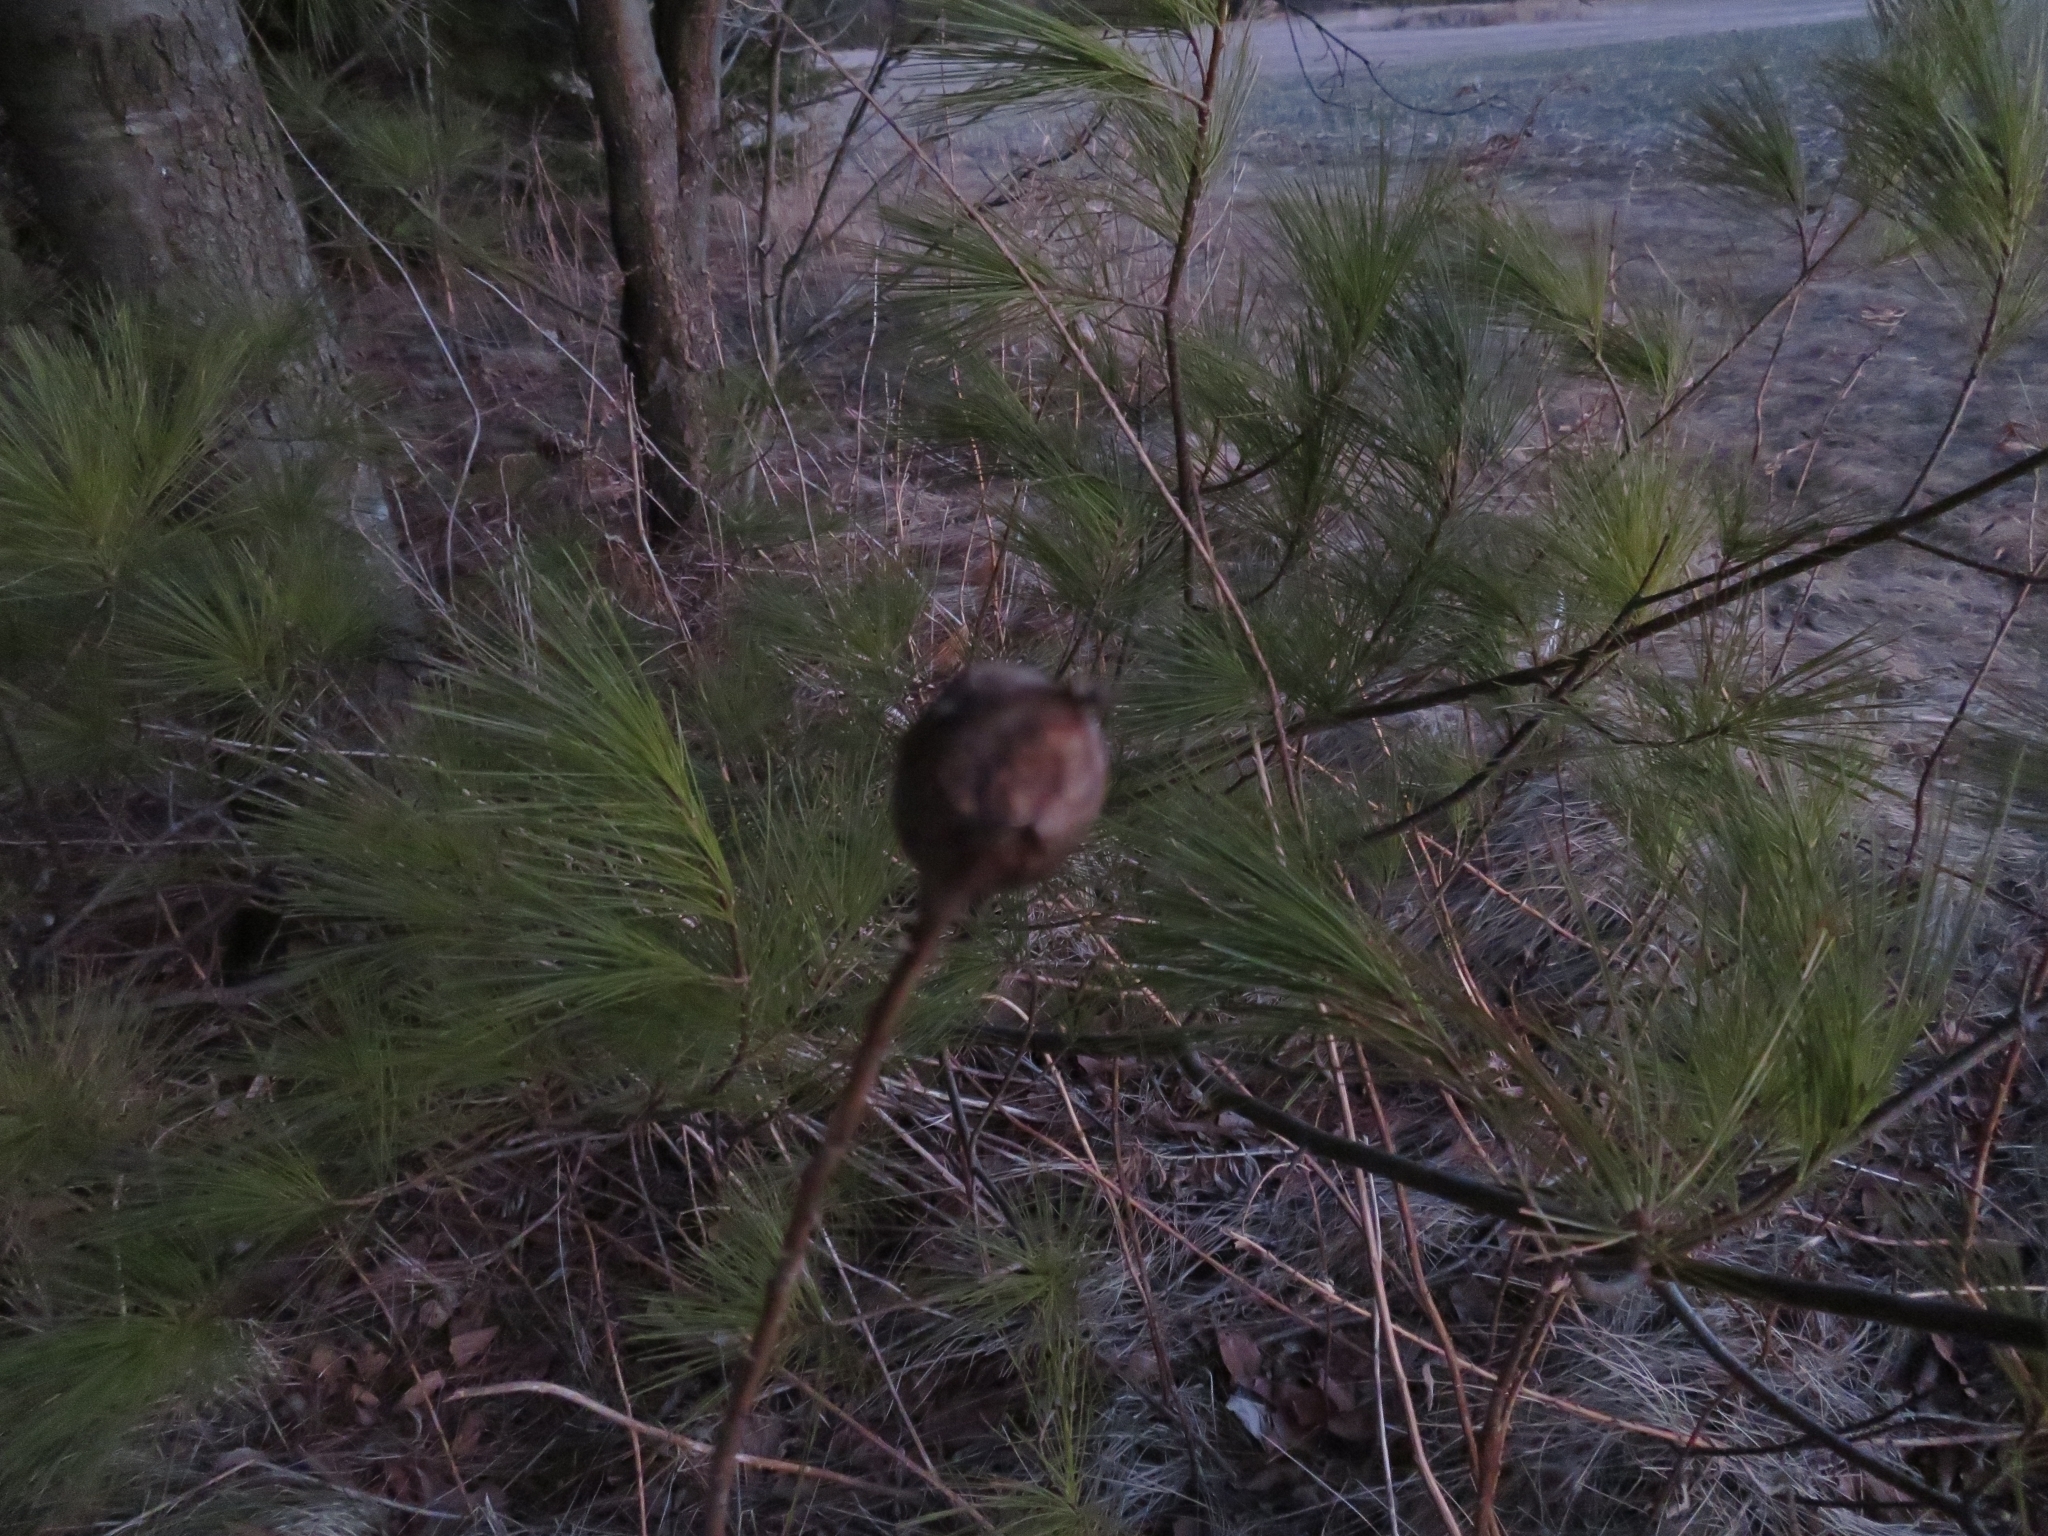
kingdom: Animalia
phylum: Arthropoda
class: Insecta
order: Diptera
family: Tephritidae
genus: Eurosta
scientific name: Eurosta solidaginis
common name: Goldenrod gall fly
